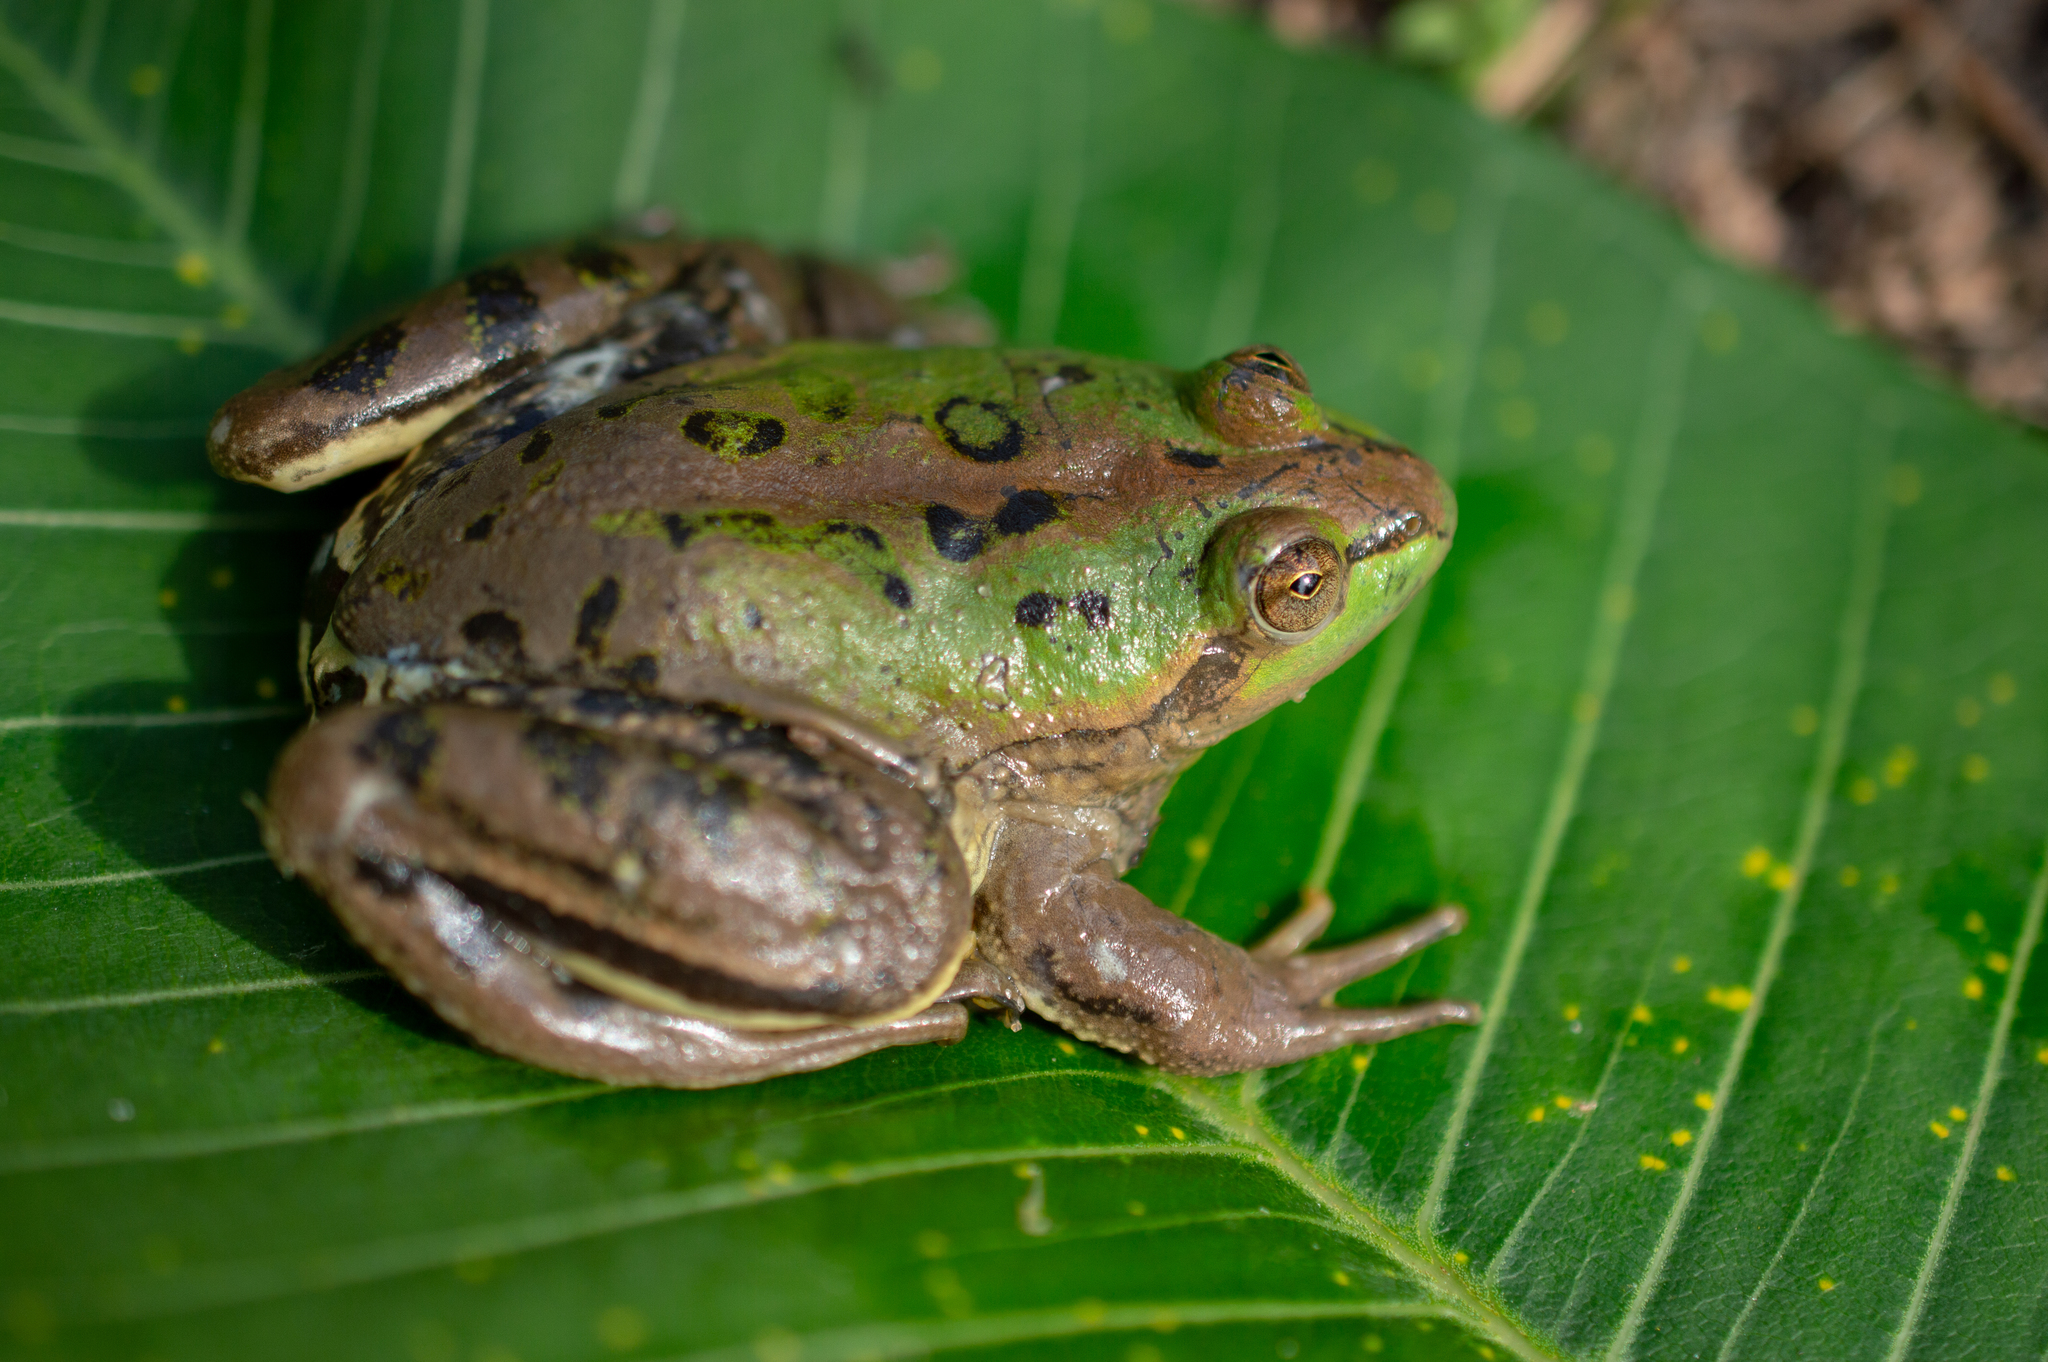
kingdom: Animalia
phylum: Chordata
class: Amphibia
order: Anura
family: Hylidae
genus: Pseudis
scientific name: Pseudis paradoxa
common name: Swimming frog
